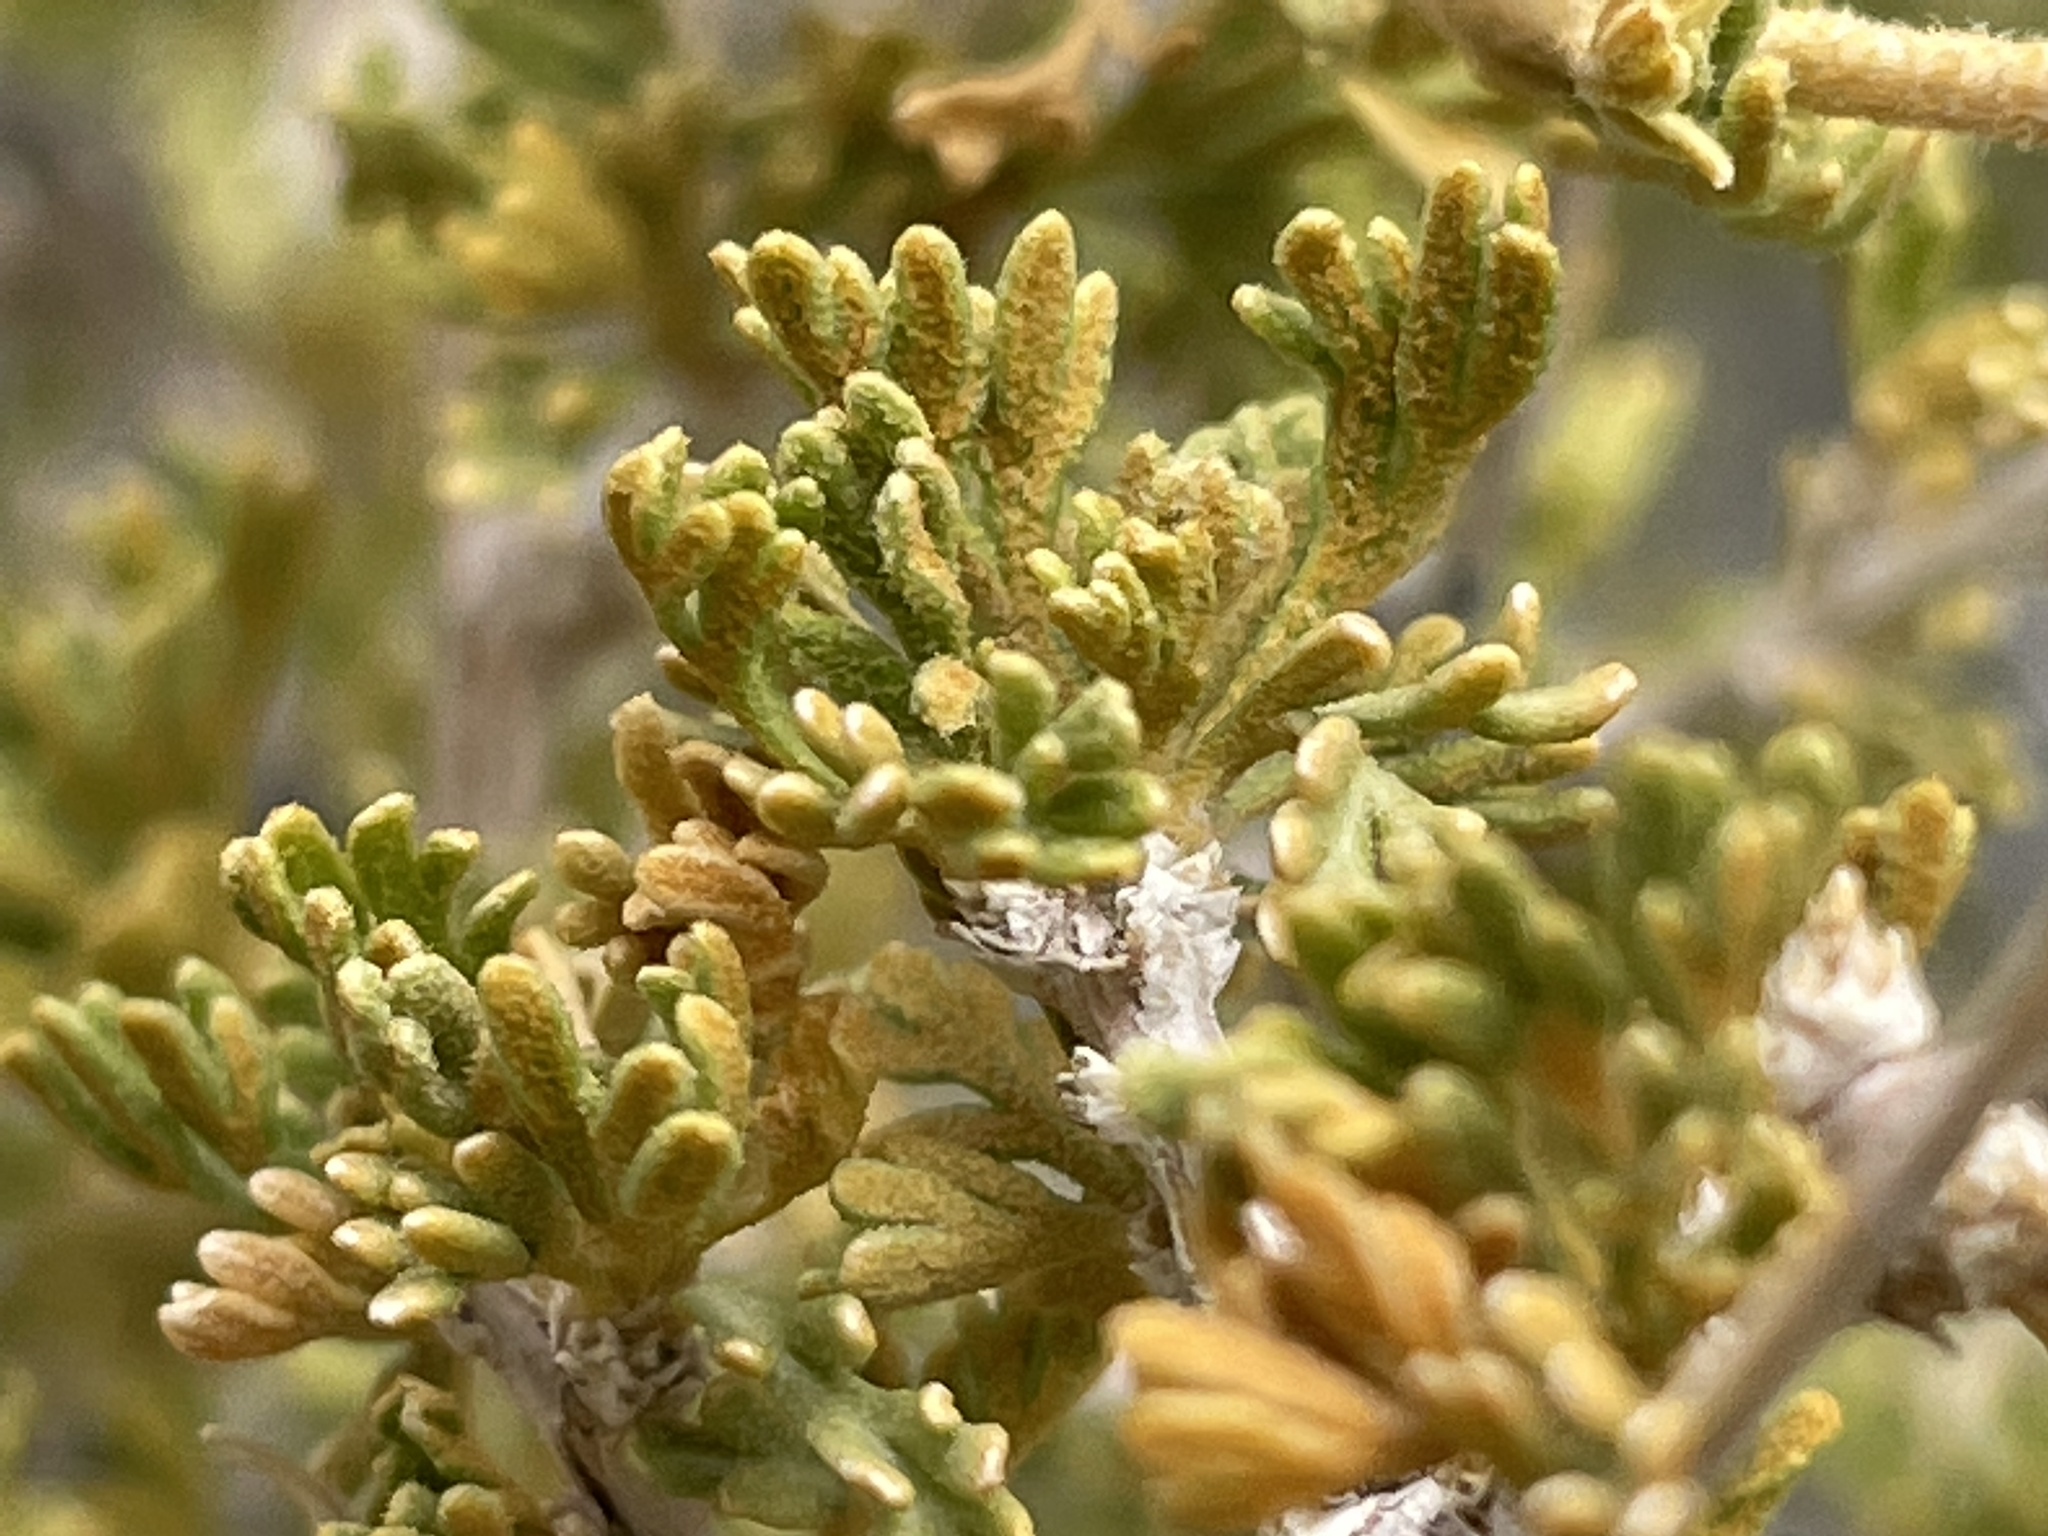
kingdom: Plantae
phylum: Tracheophyta
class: Magnoliopsida
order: Rosales
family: Rosaceae
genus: Fallugia
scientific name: Fallugia paradoxa
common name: Apache-plume
